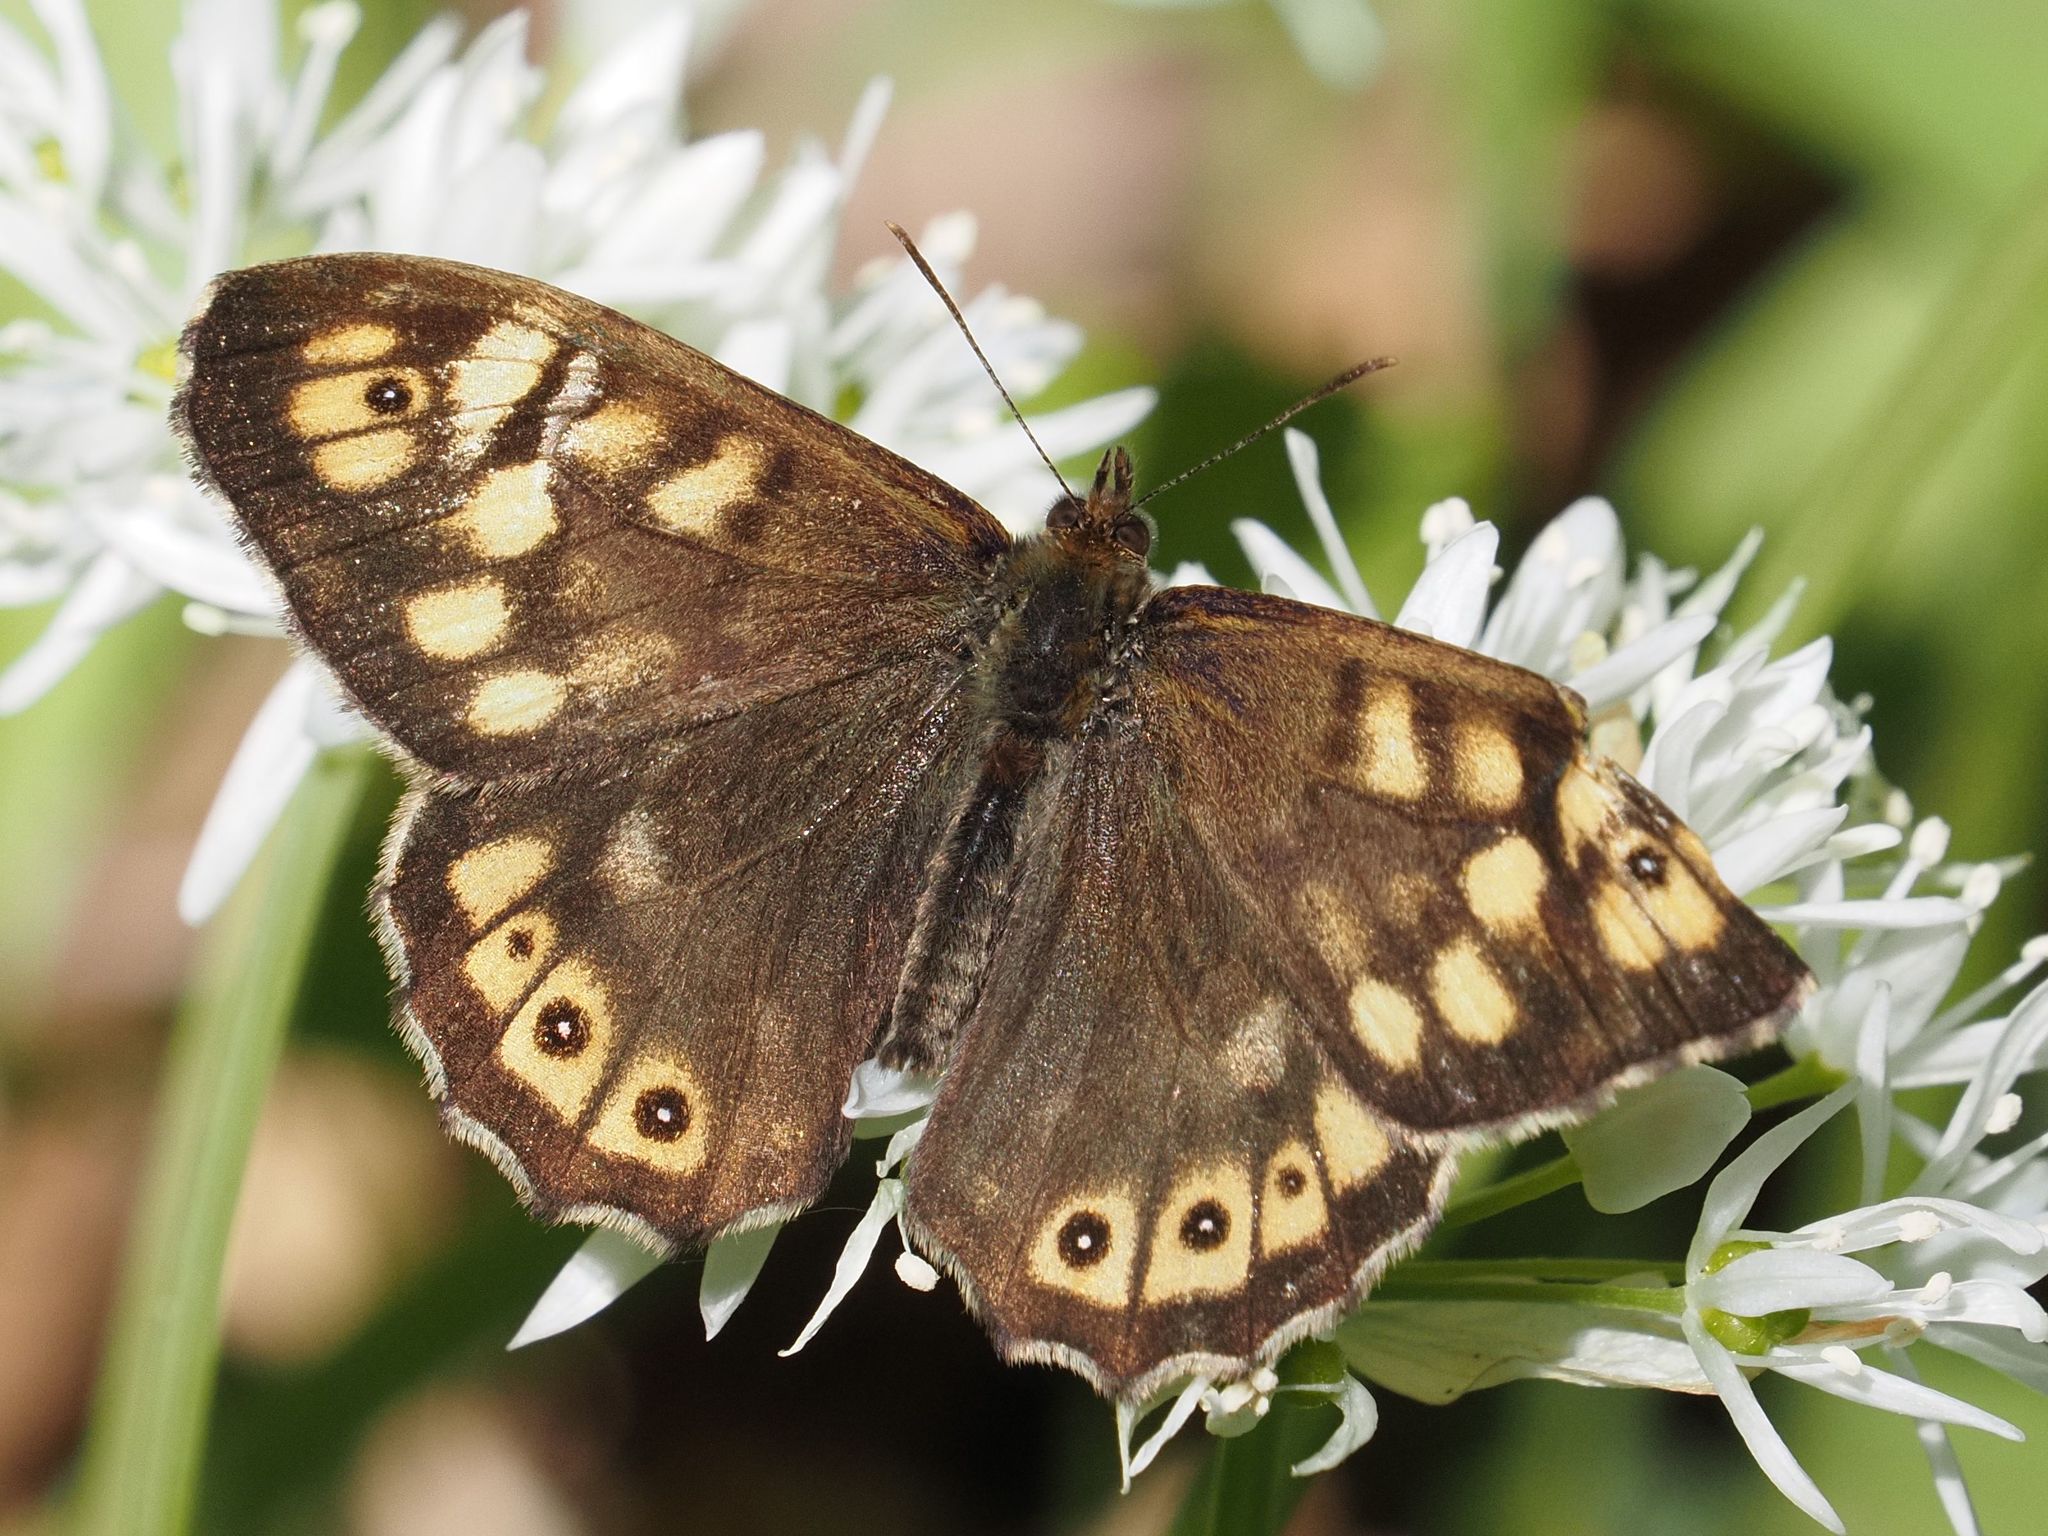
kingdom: Animalia
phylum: Arthropoda
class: Insecta
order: Lepidoptera
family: Nymphalidae
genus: Pararge
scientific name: Pararge aegeria
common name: Speckled wood
